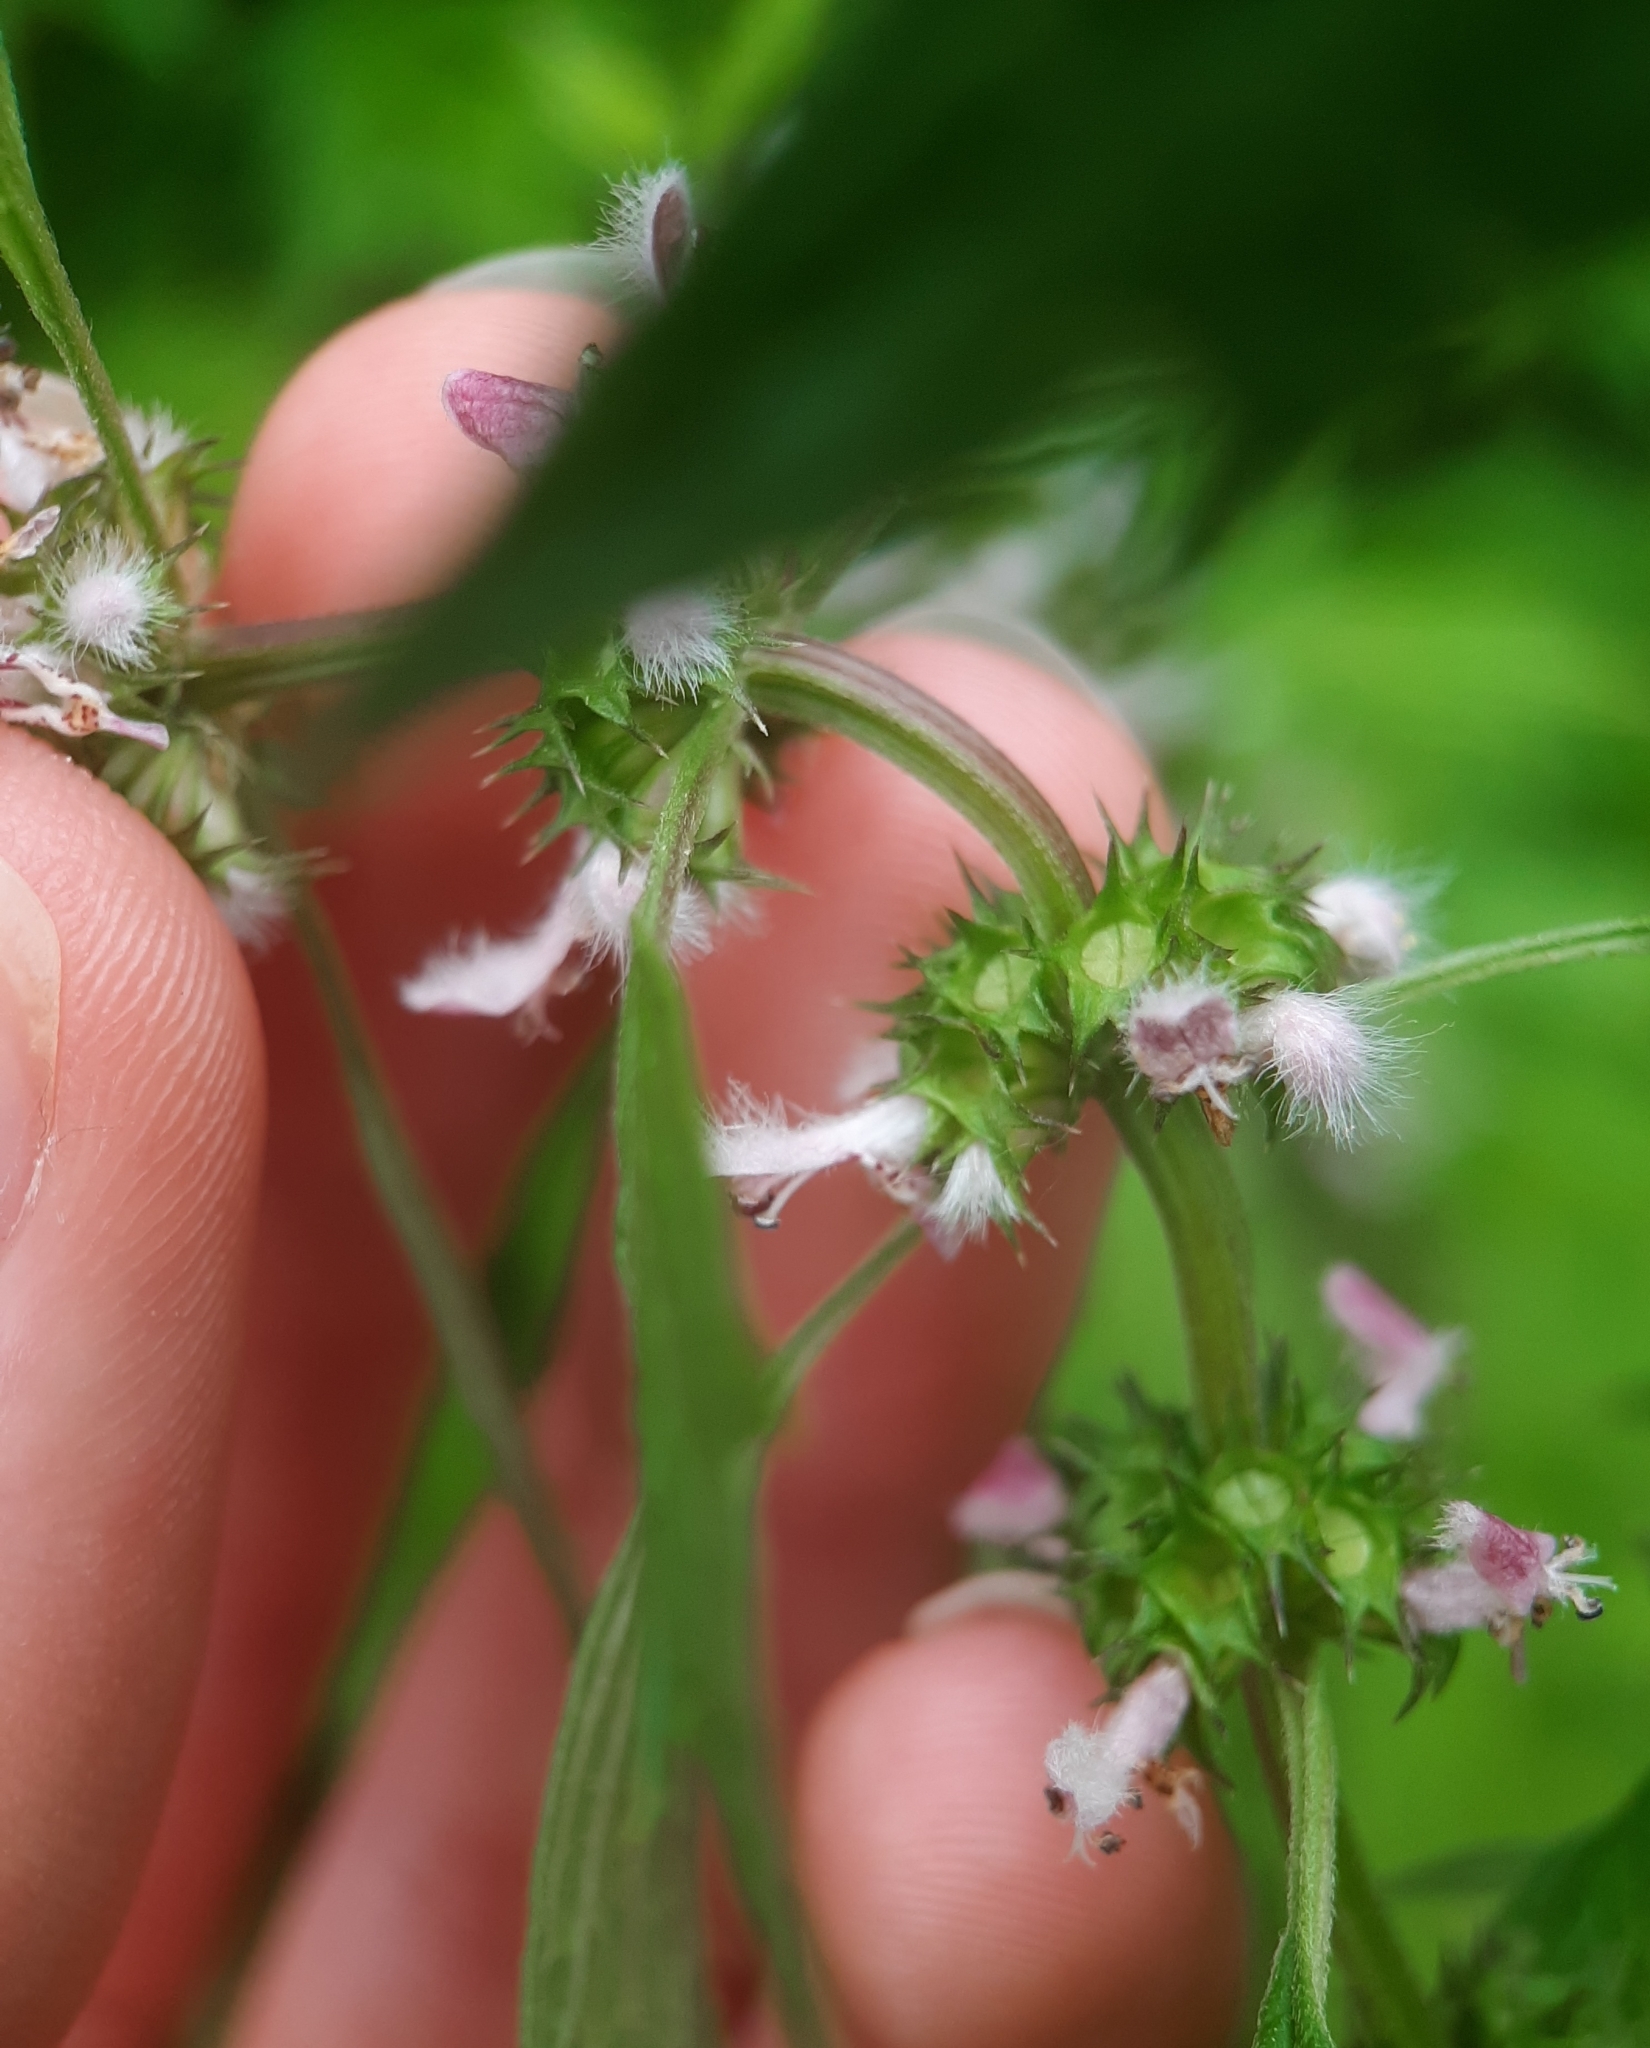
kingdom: Plantae
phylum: Tracheophyta
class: Magnoliopsida
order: Lamiales
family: Lamiaceae
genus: Leonurus
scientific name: Leonurus cardiaca
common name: Motherwort
